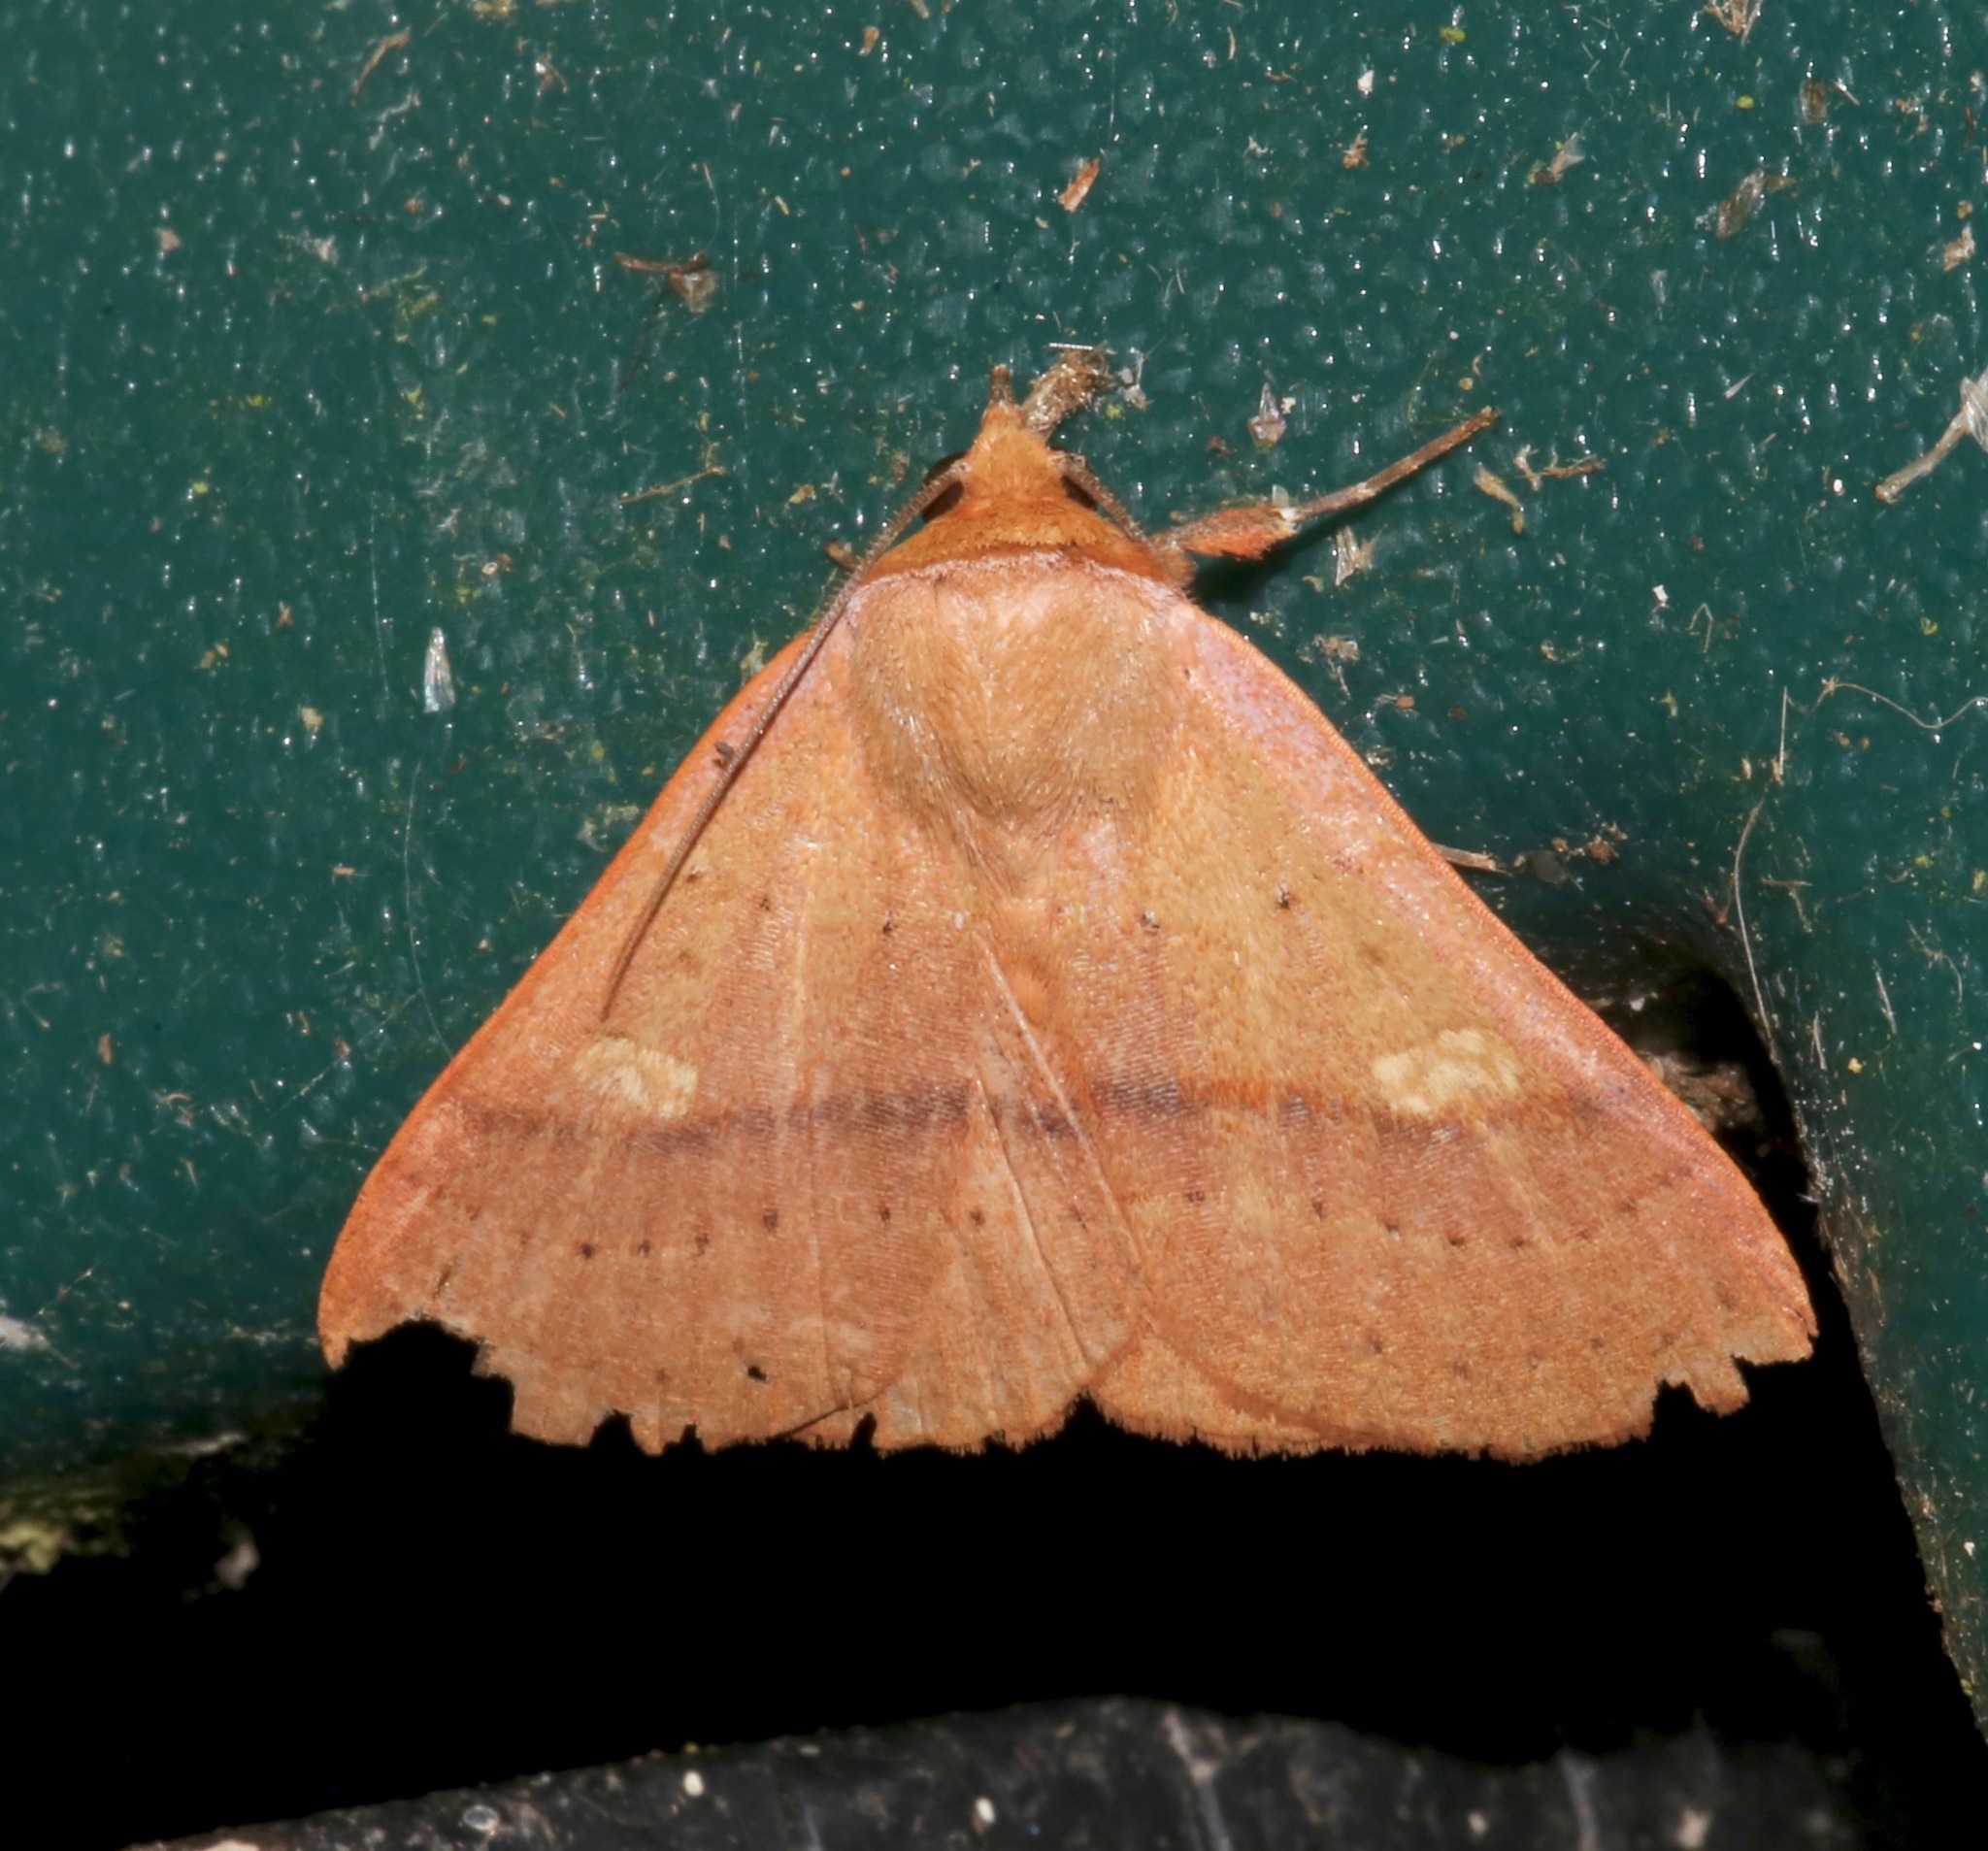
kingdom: Animalia
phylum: Arthropoda
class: Insecta
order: Lepidoptera
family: Erebidae
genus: Panopoda
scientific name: Panopoda repanda
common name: Orange panopoda
